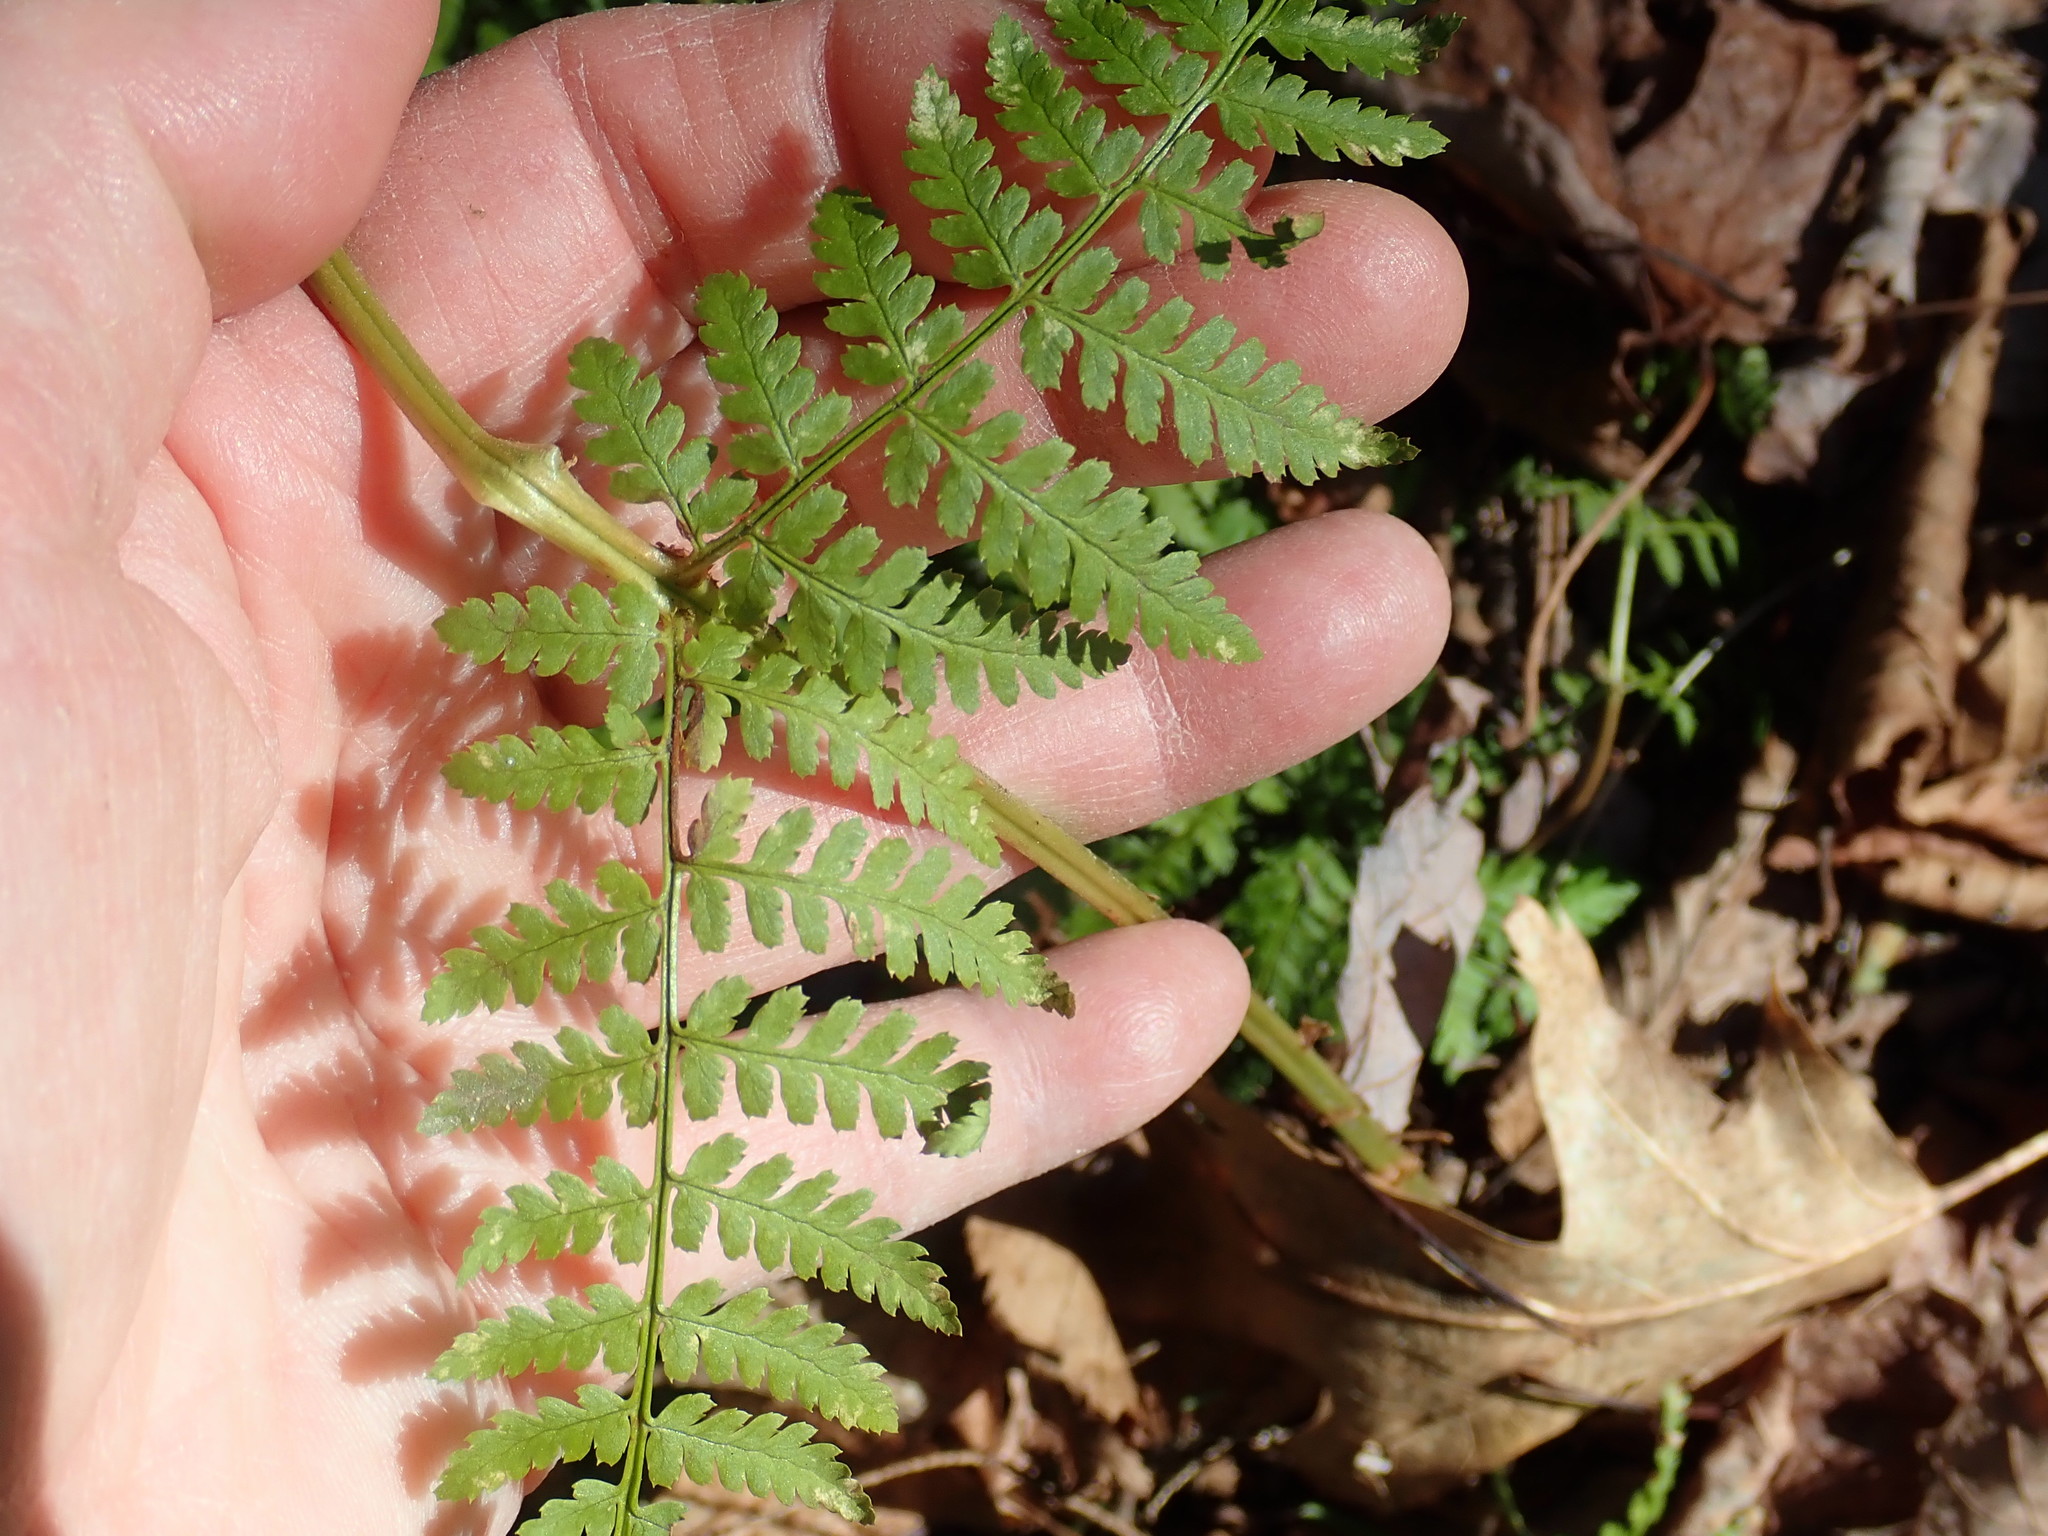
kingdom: Plantae
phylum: Tracheophyta
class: Polypodiopsida
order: Polypodiales
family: Dryopteridaceae
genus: Dryopteris
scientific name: Dryopteris intermedia
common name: Evergreen wood fern
